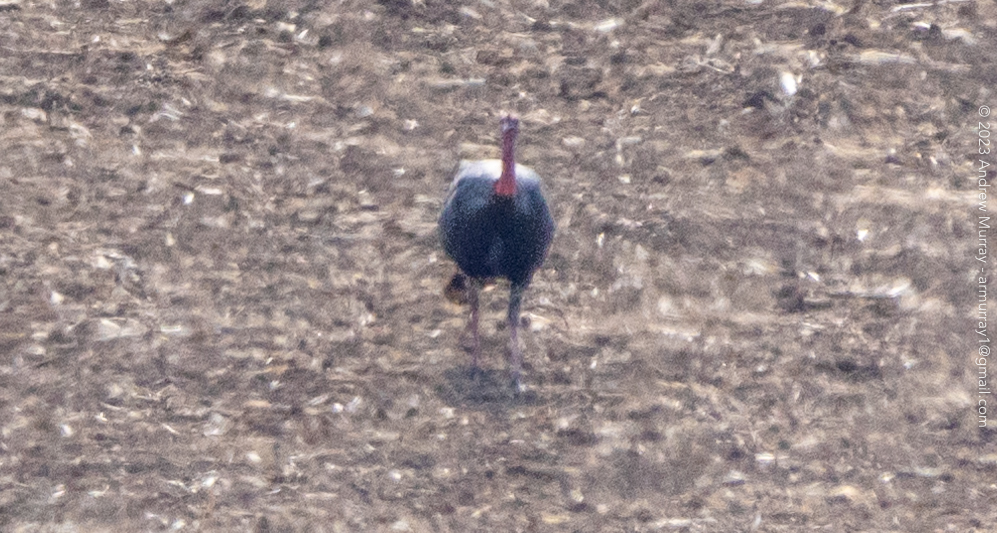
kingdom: Animalia
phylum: Chordata
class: Aves
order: Galliformes
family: Phasianidae
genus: Meleagris
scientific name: Meleagris gallopavo
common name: Wild turkey
